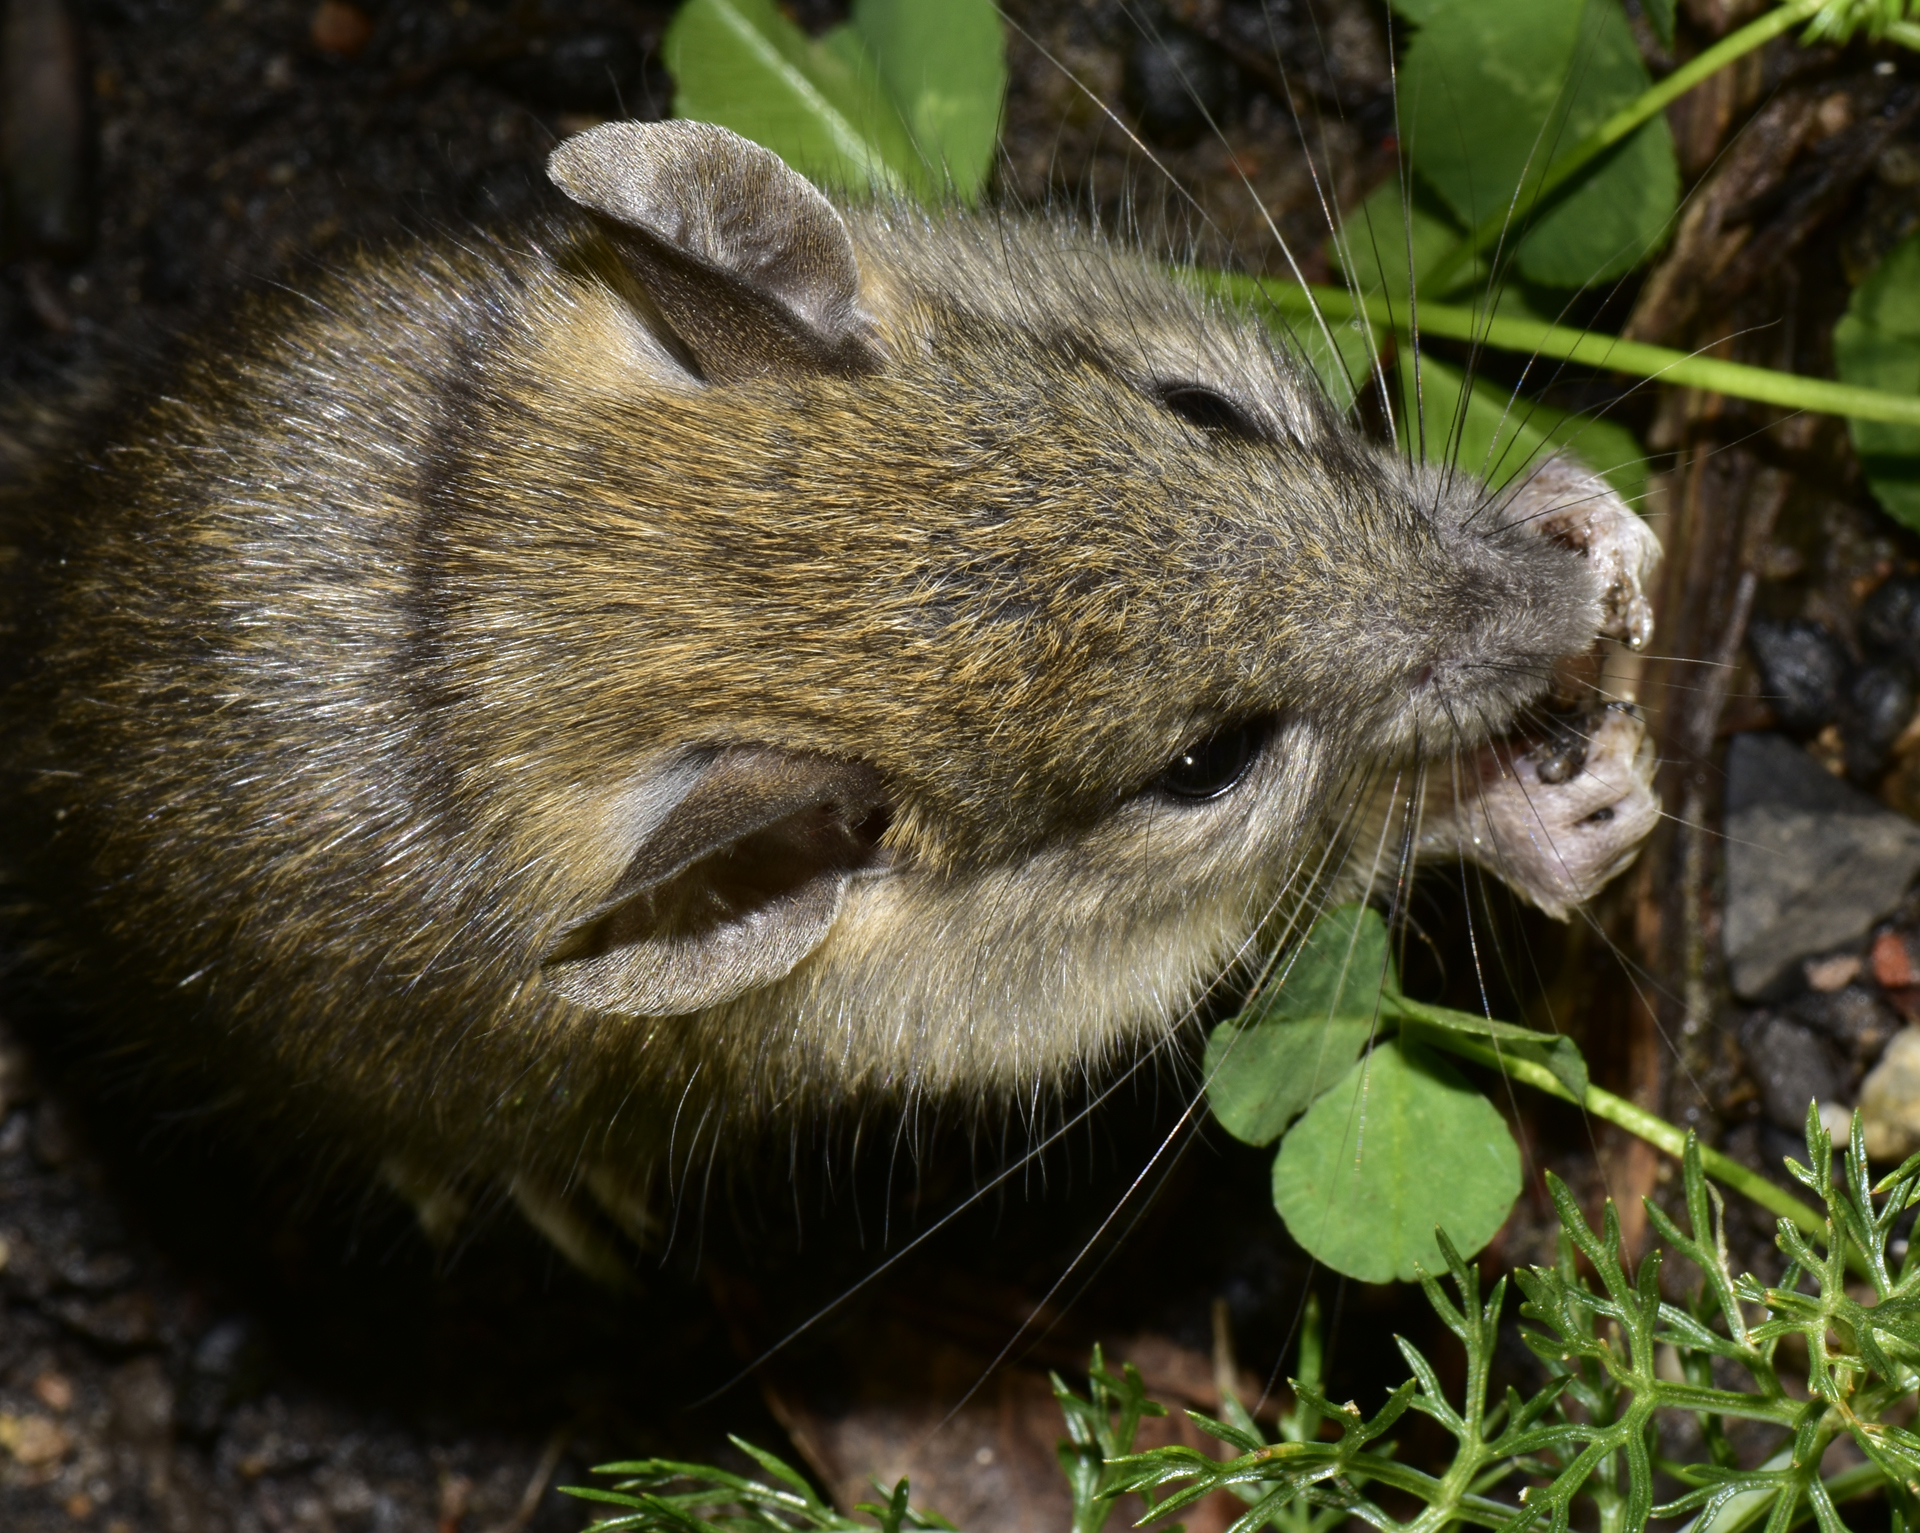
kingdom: Animalia
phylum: Chordata
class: Mammalia
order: Rodentia
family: Muridae
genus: Mus
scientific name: Mus musculus
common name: House mouse
